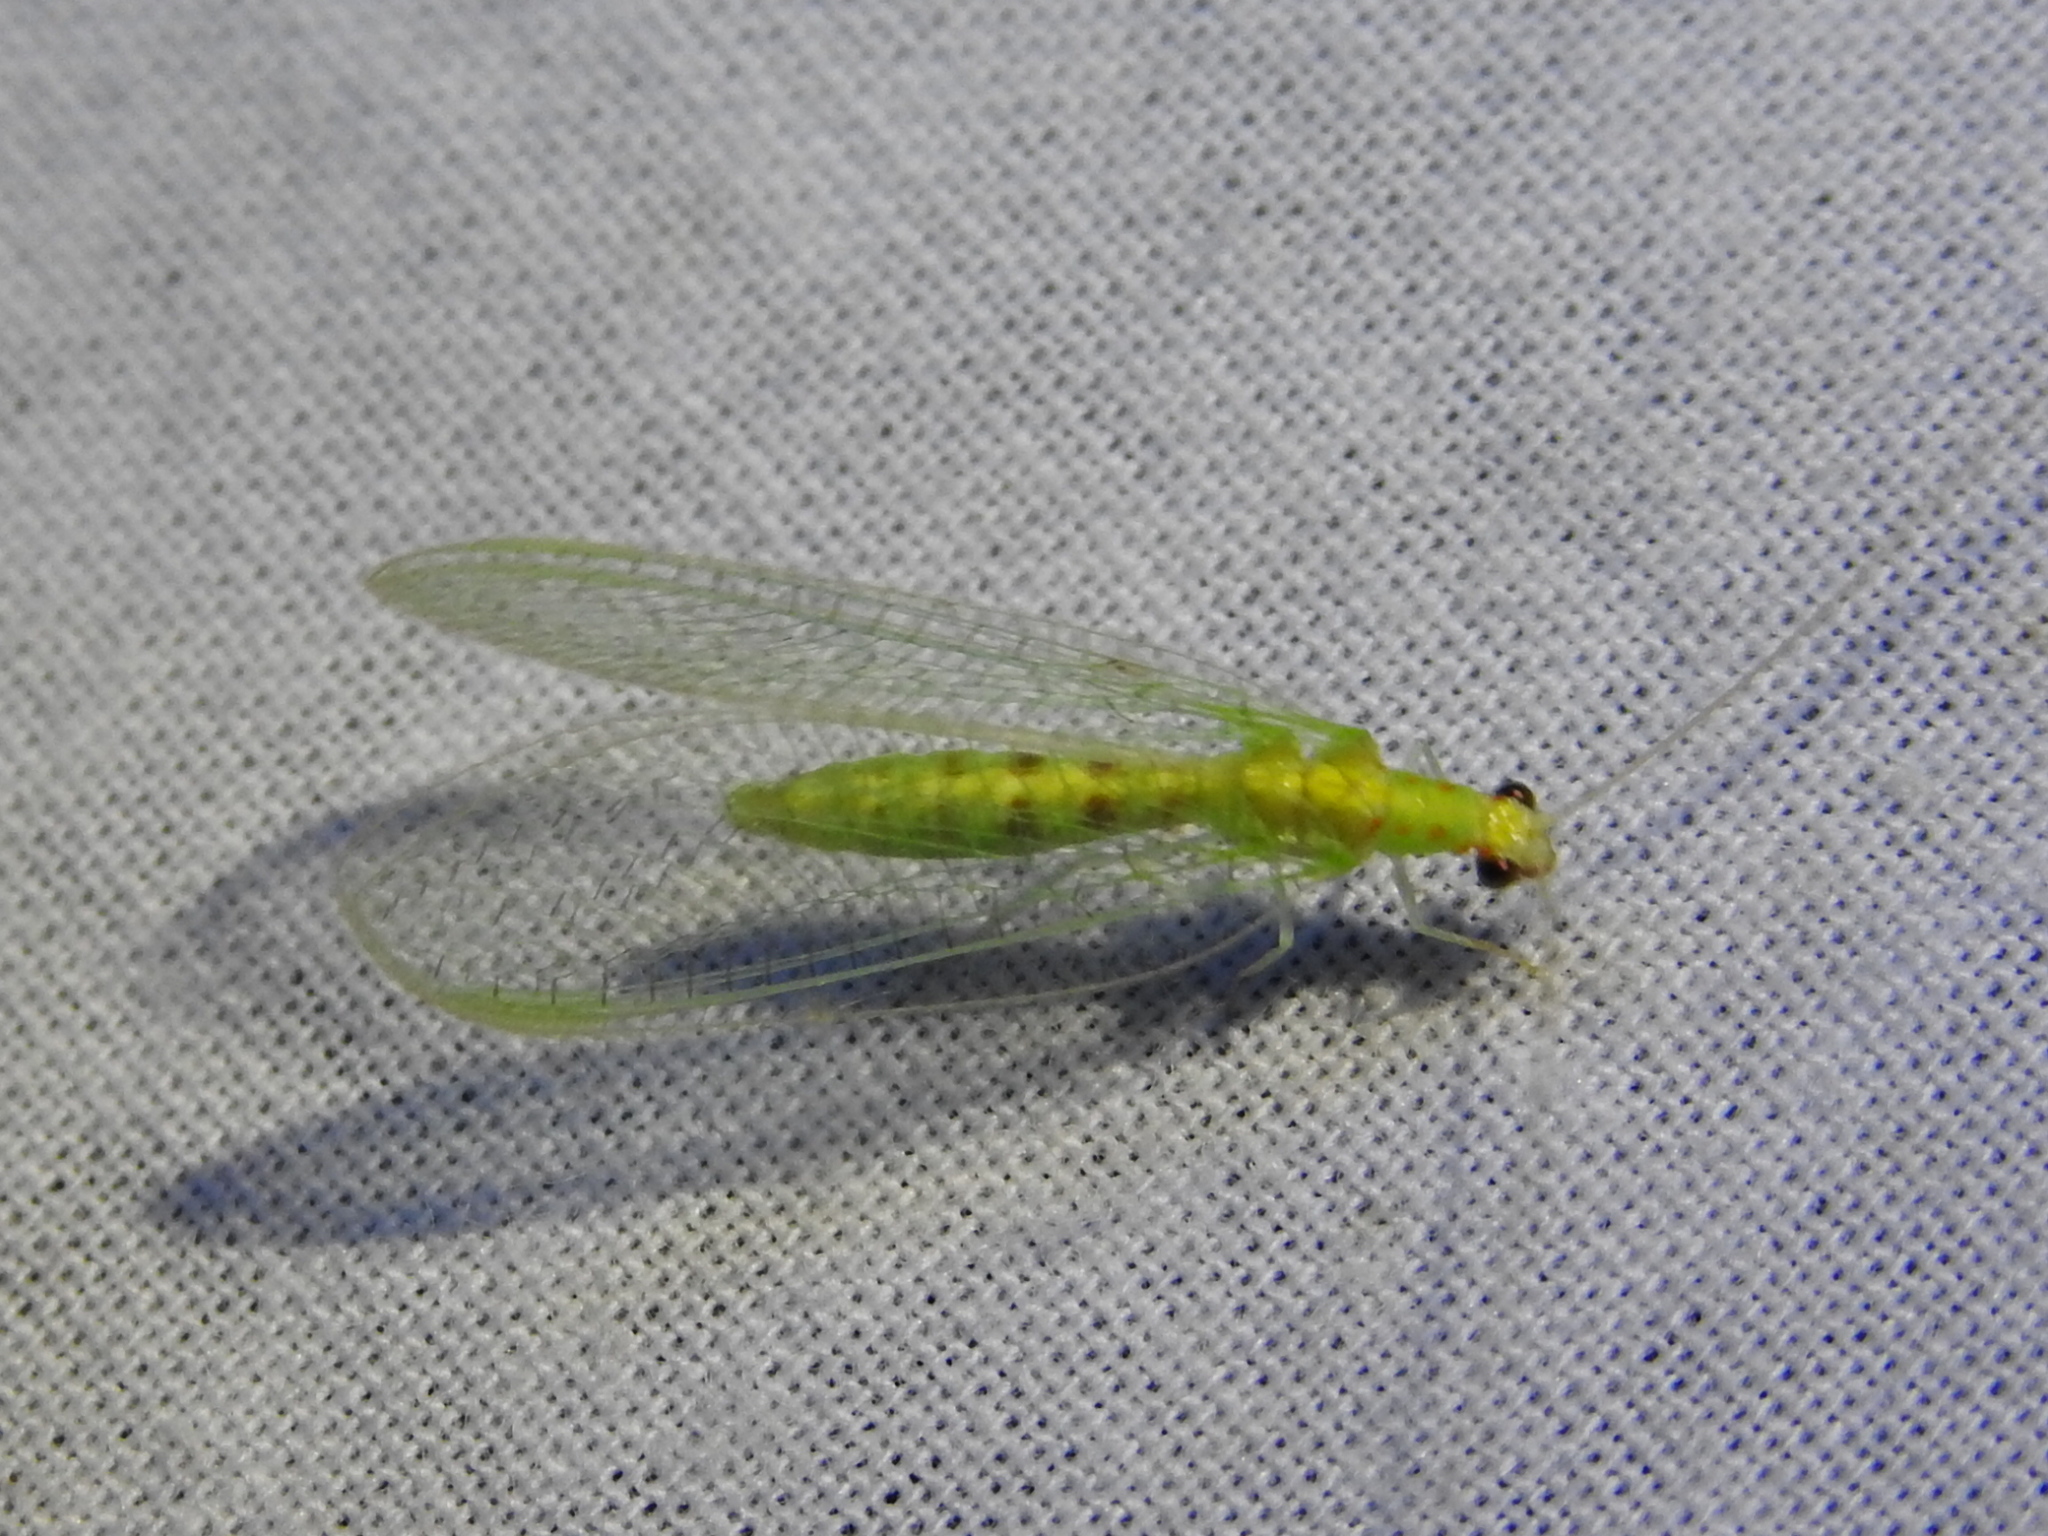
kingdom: Animalia
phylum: Arthropoda
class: Insecta
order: Neuroptera
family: Chrysopidae
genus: Chrysopa
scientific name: Chrysopa quadripunctata
